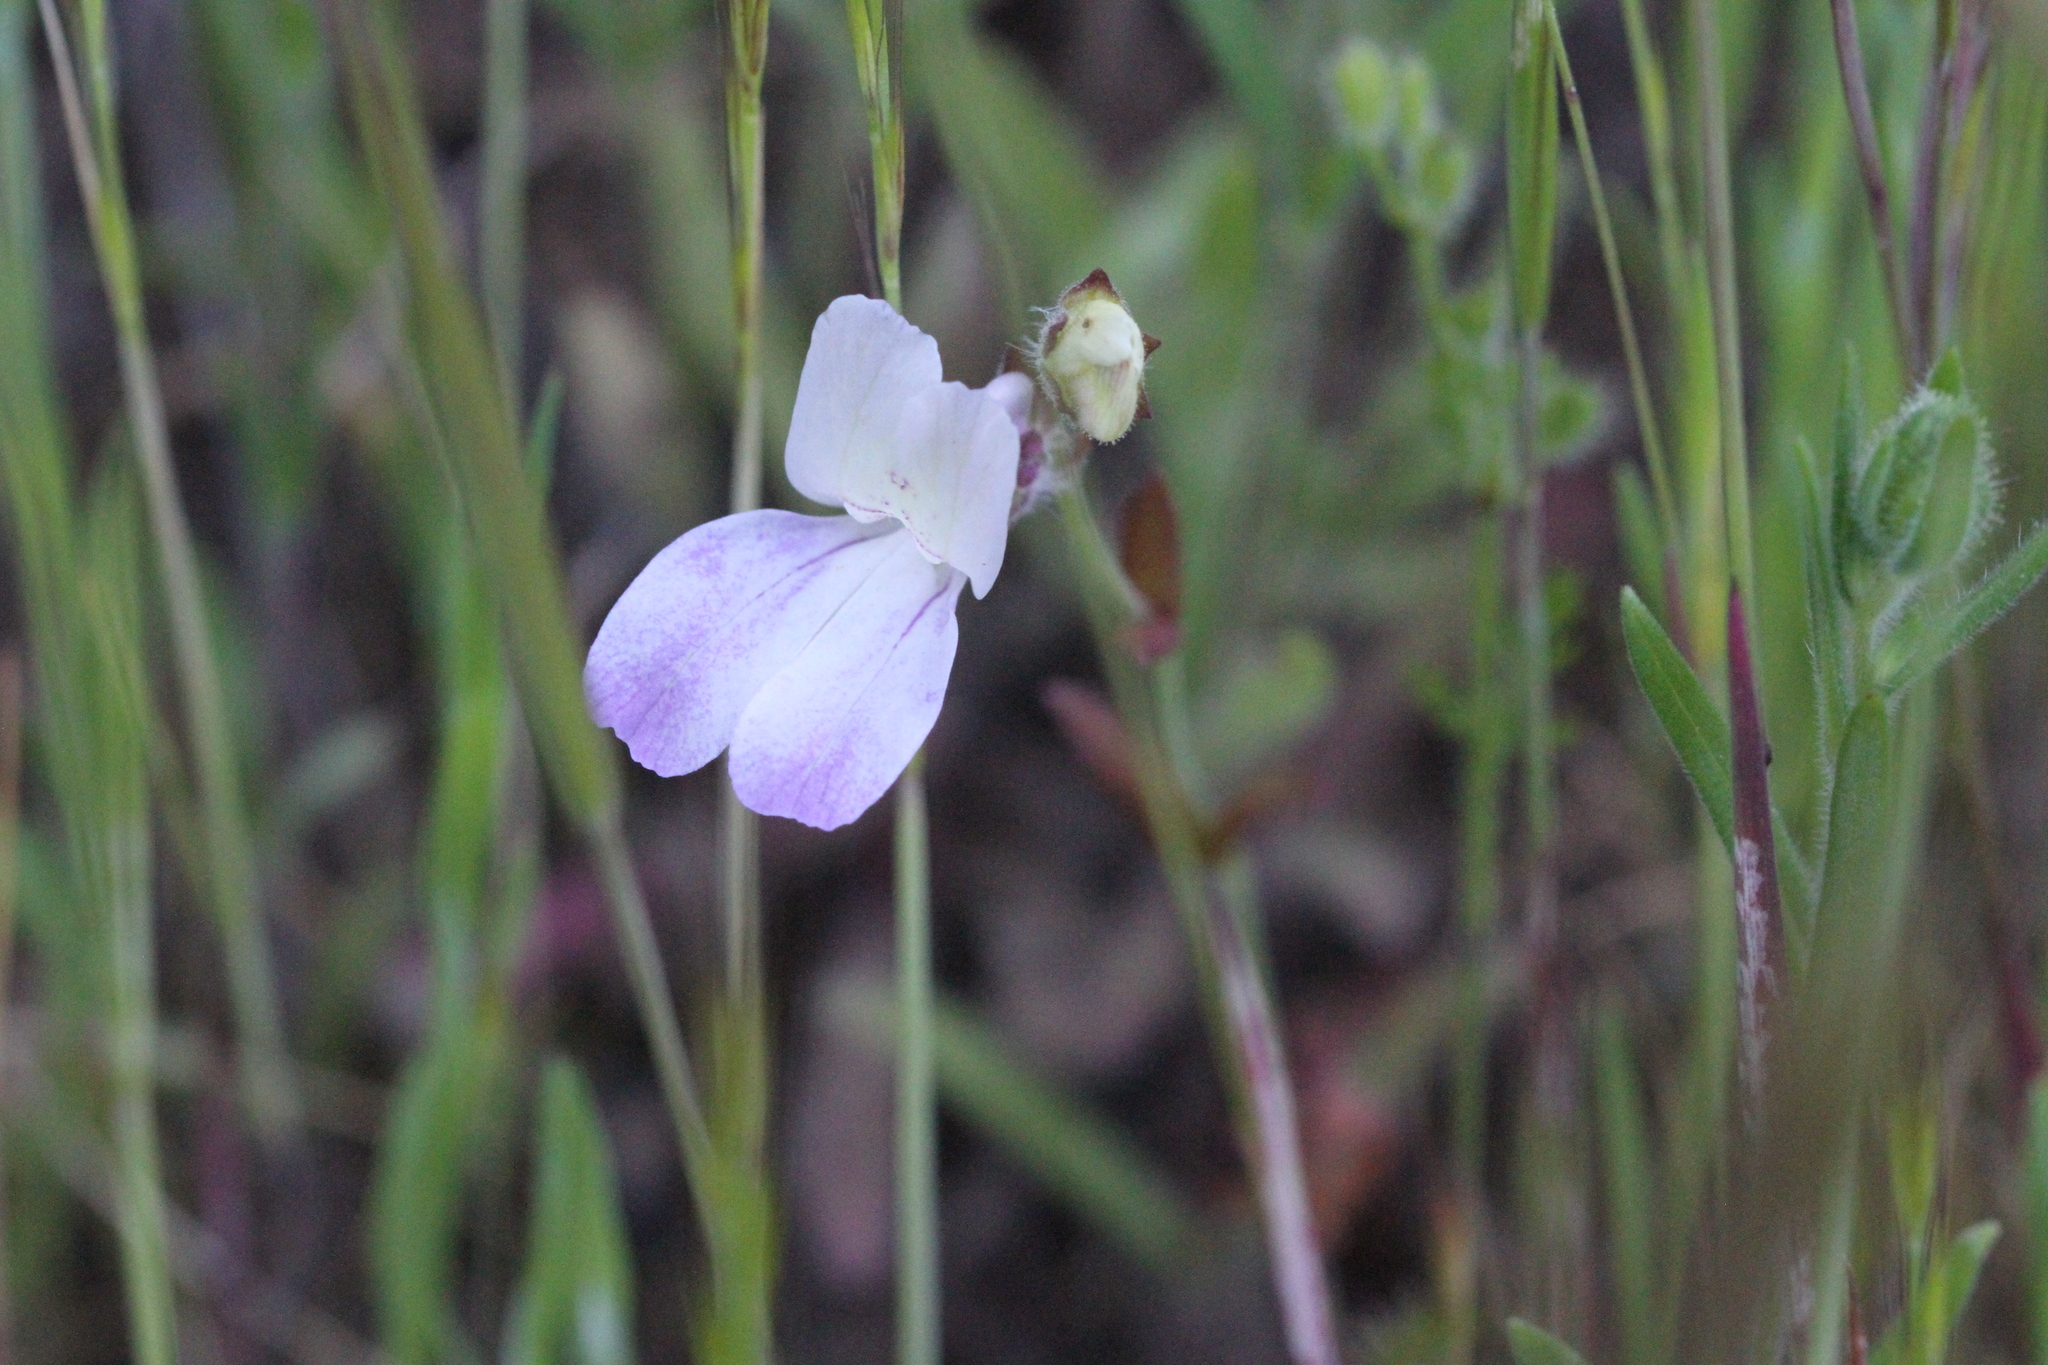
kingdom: Plantae
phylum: Tracheophyta
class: Magnoliopsida
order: Lamiales
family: Plantaginaceae
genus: Collinsia
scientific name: Collinsia heterophylla
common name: Chinese-houses
